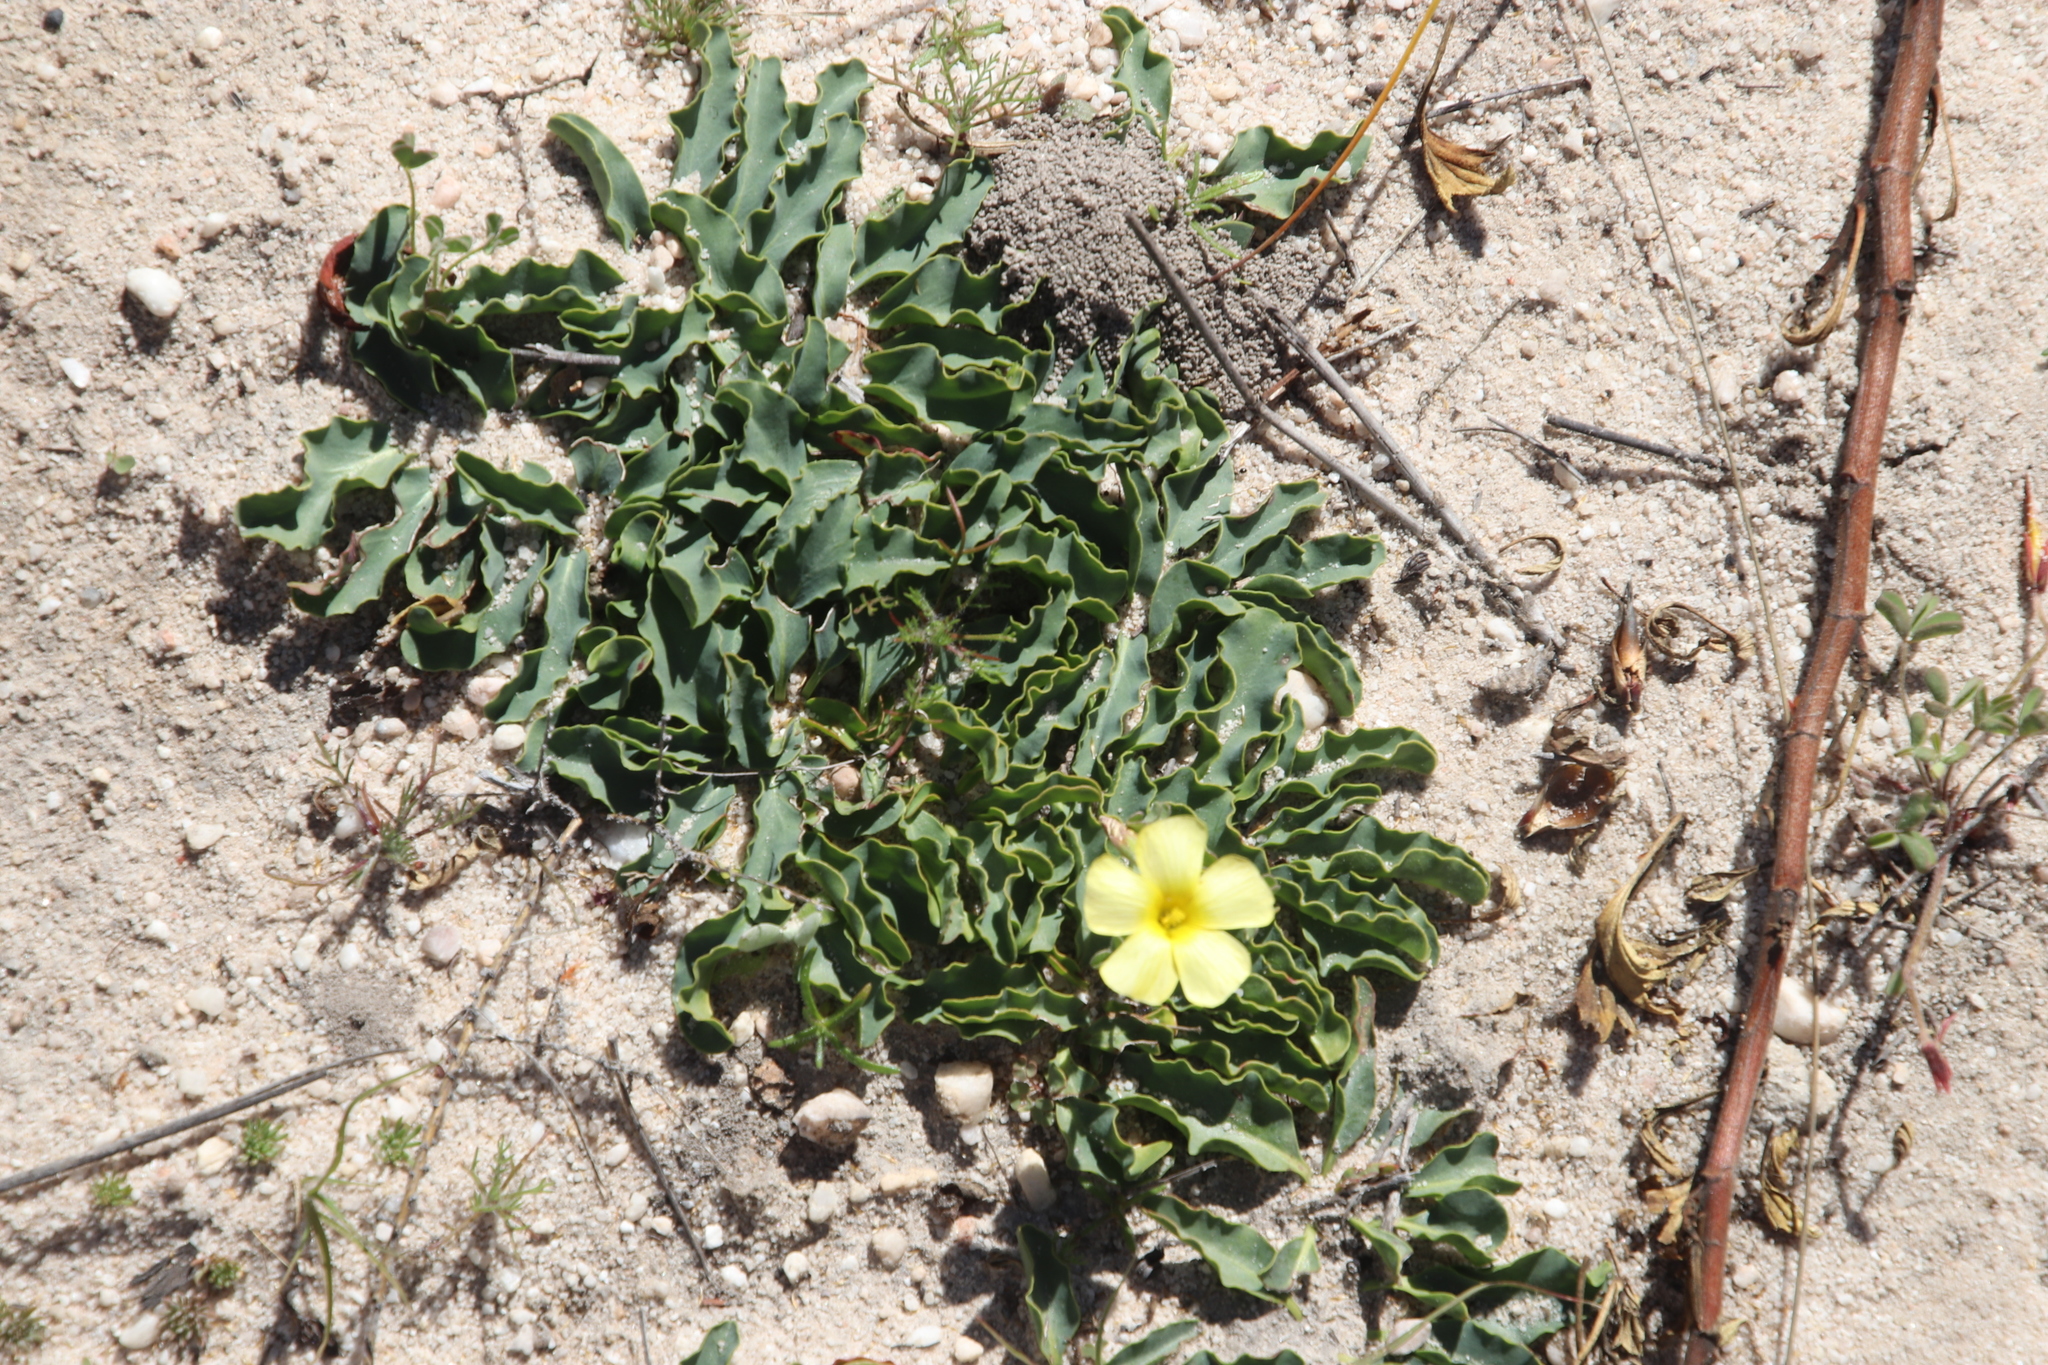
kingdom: Plantae
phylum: Tracheophyta
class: Magnoliopsida
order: Oxalidales
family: Oxalidaceae
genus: Oxalis
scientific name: Oxalis obtusa
